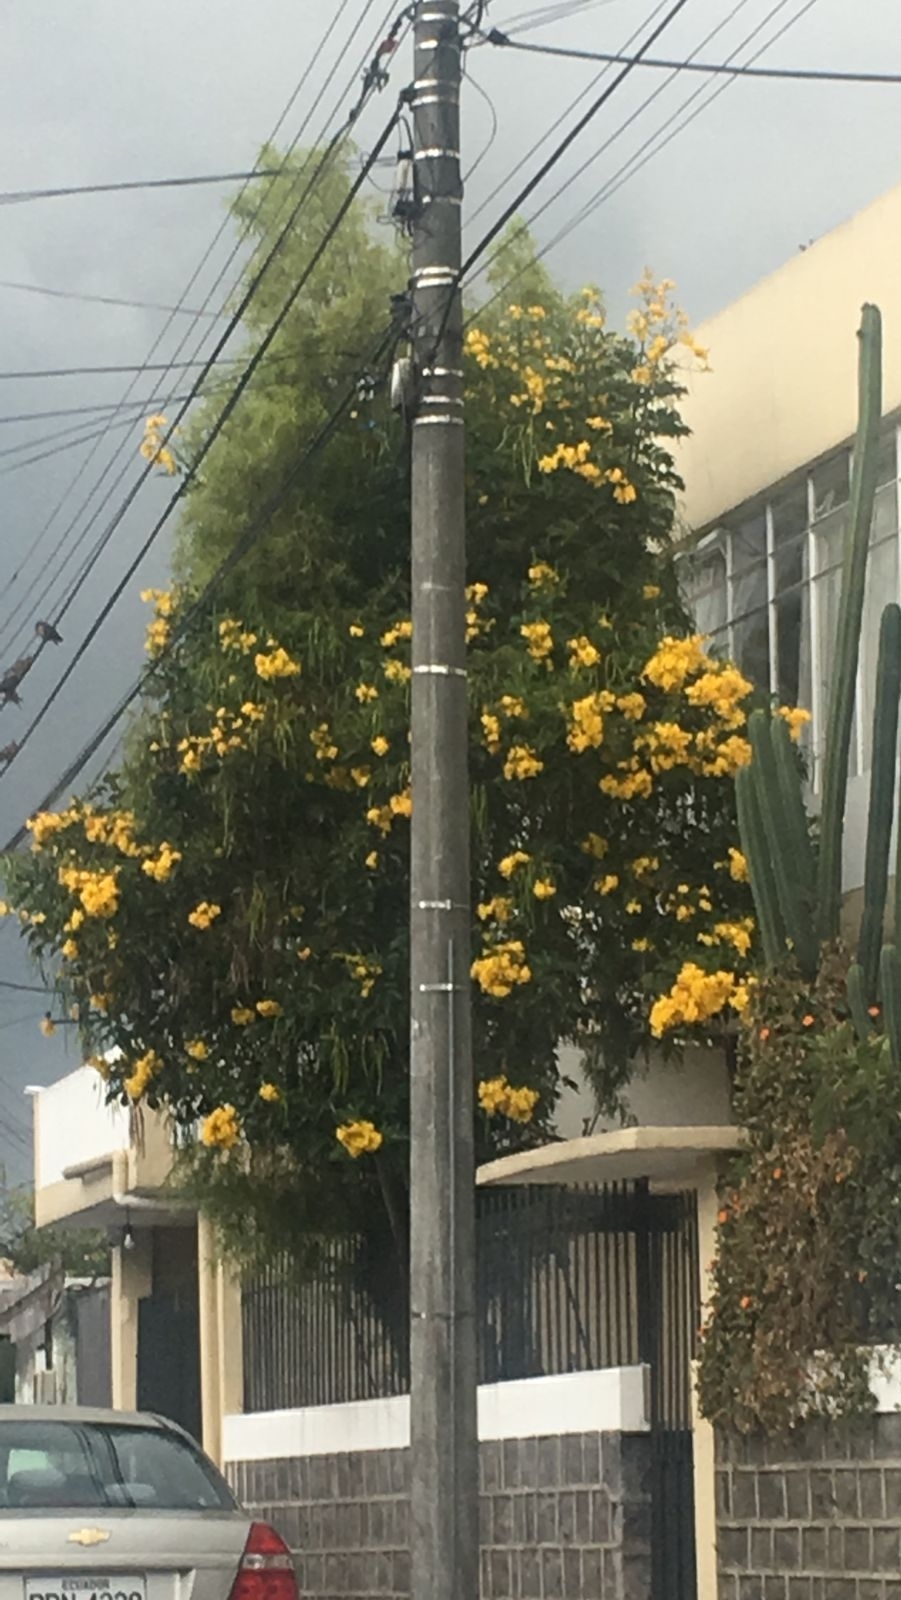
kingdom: Plantae
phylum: Tracheophyta
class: Magnoliopsida
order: Lamiales
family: Bignoniaceae
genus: Tecoma
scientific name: Tecoma stans
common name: Yellow trumpetbush
